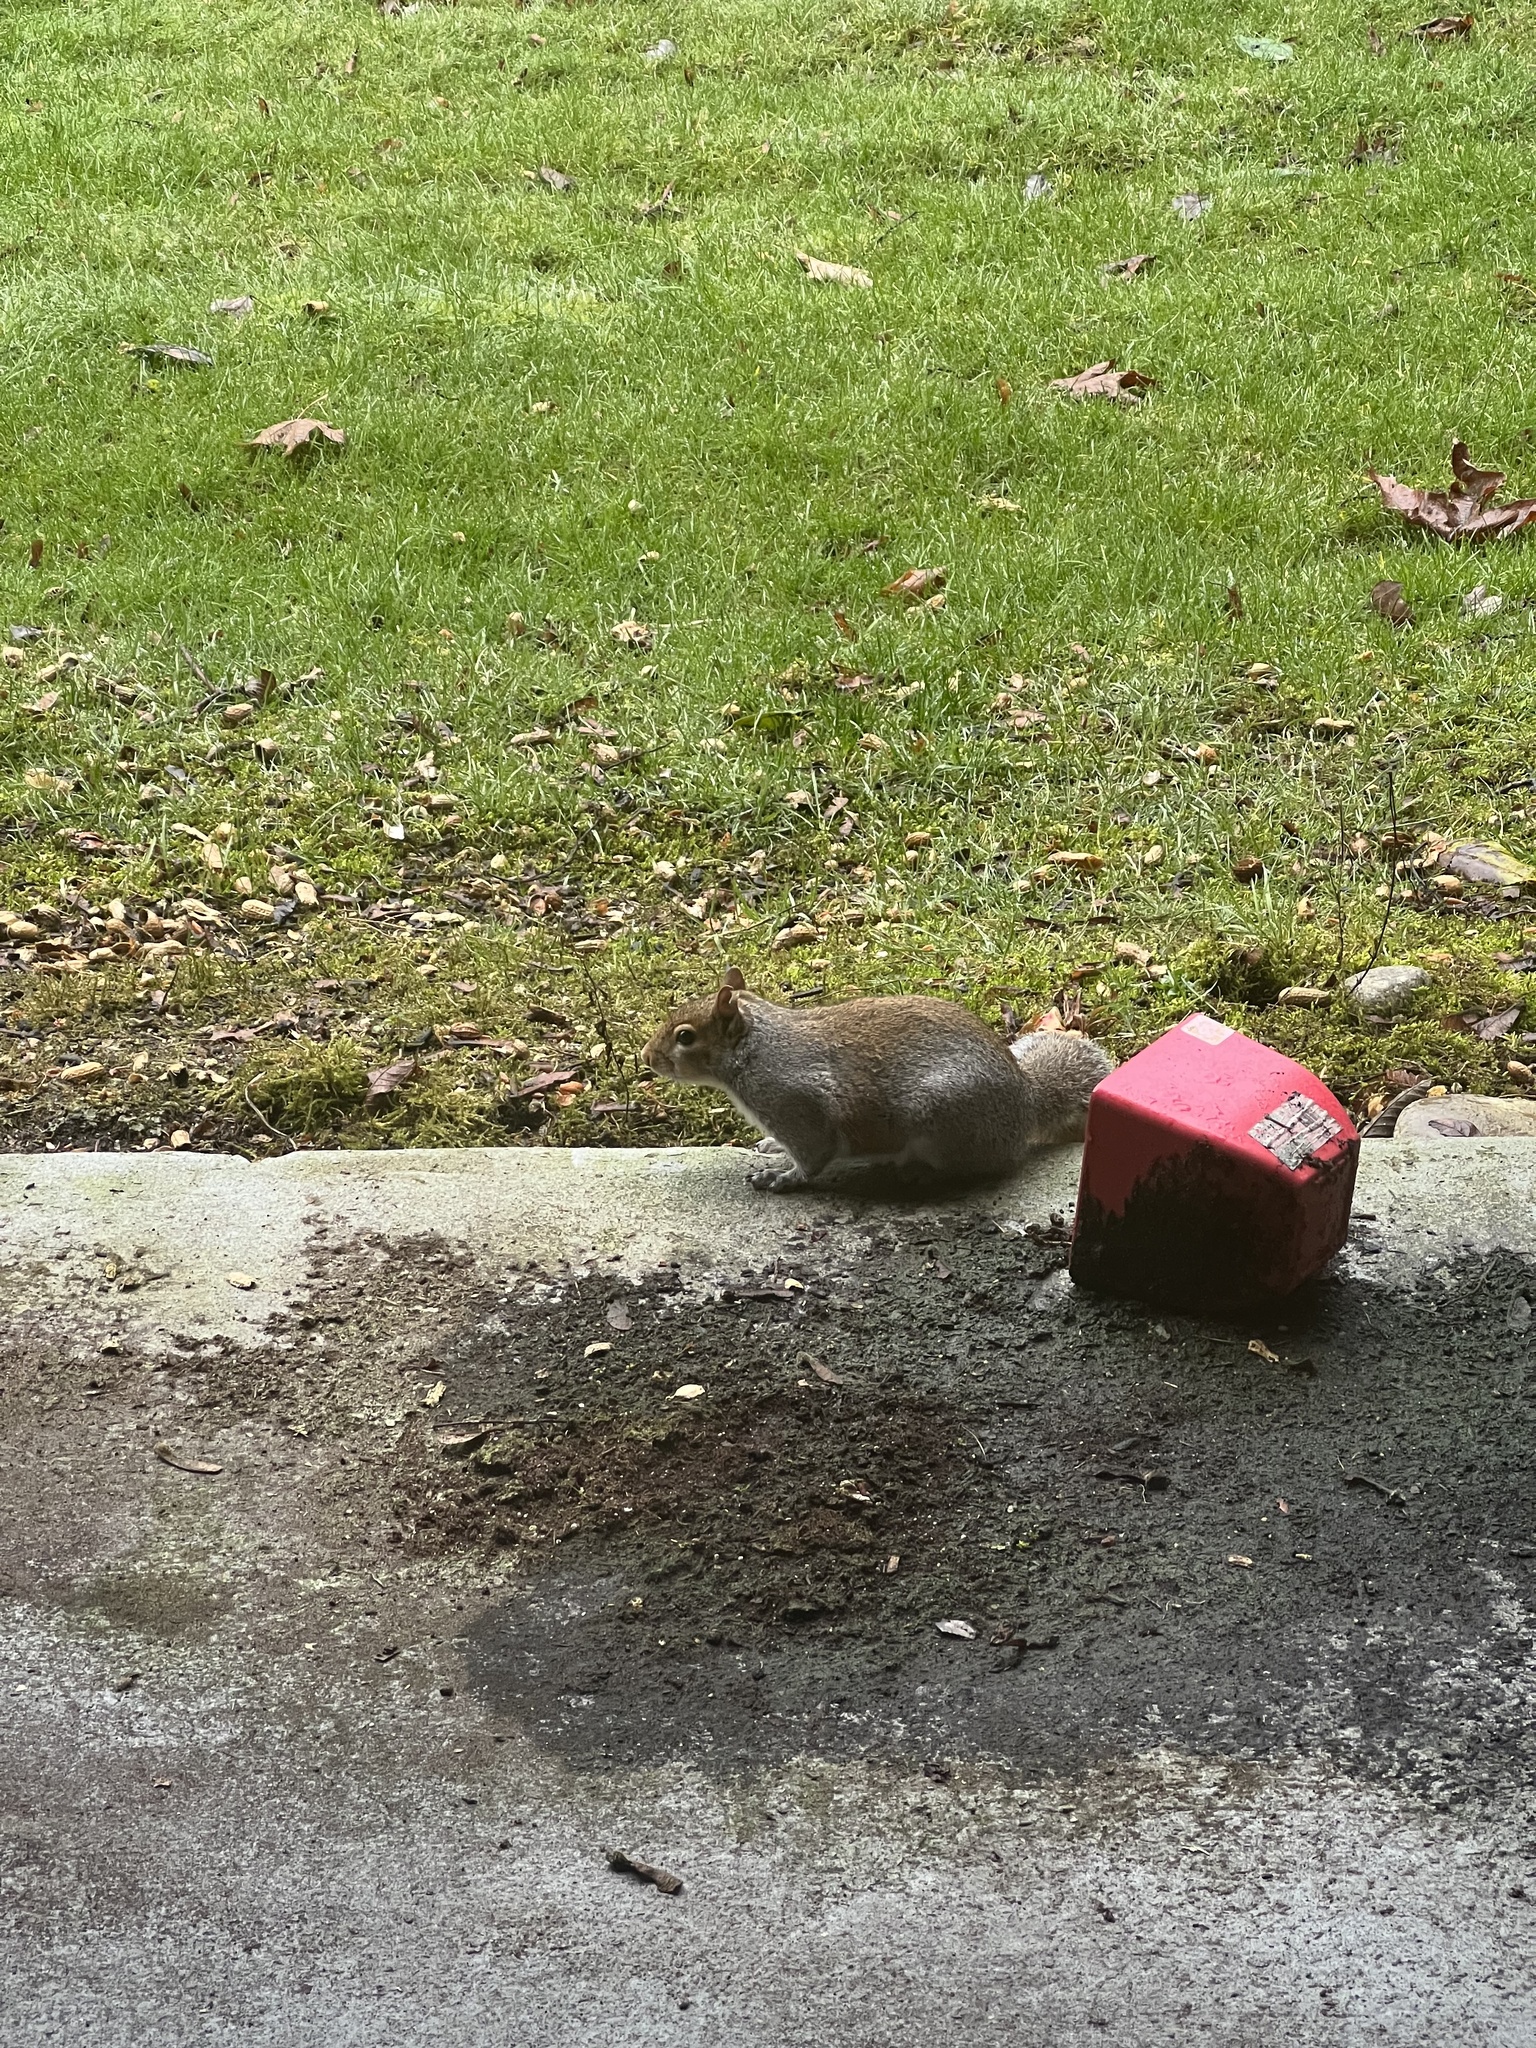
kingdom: Animalia
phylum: Chordata
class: Mammalia
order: Rodentia
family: Sciuridae
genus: Sciurus
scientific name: Sciurus carolinensis
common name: Eastern gray squirrel
